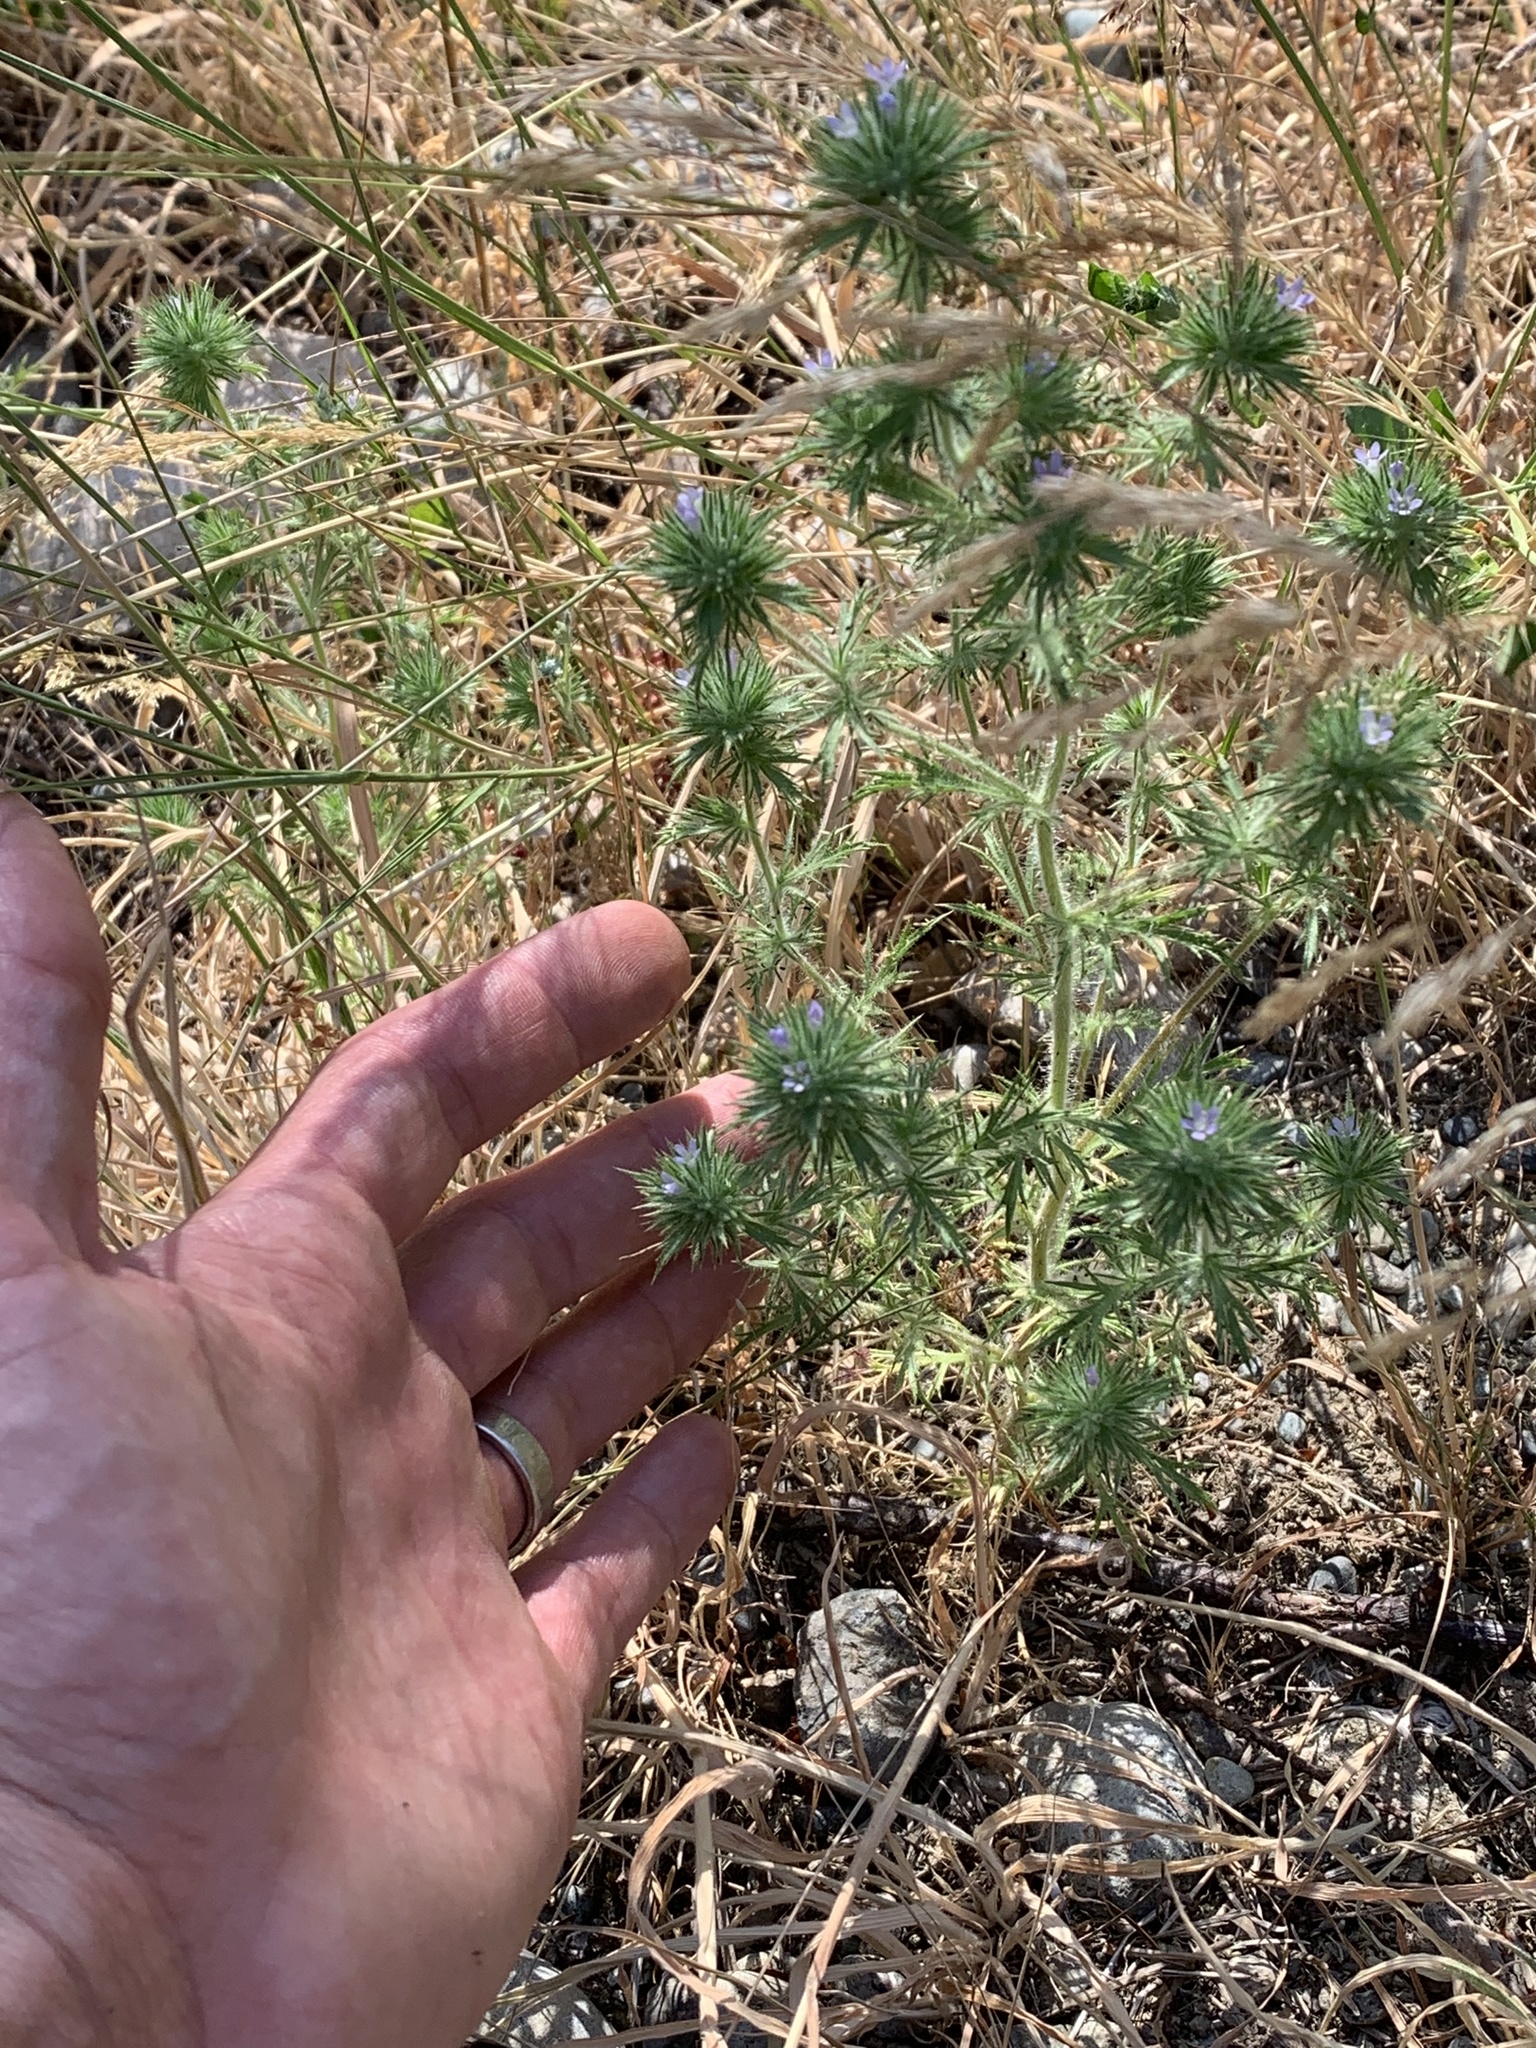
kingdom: Plantae
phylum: Tracheophyta
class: Magnoliopsida
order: Ericales
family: Polemoniaceae
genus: Navarretia
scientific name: Navarretia squarrosa
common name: Skunkweed
